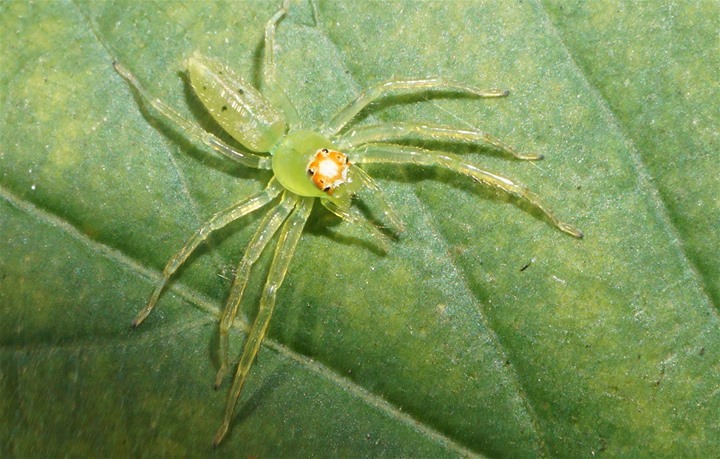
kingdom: Animalia
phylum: Arthropoda
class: Arachnida
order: Araneae
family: Salticidae
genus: Lyssomanes
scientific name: Lyssomanes viridis
